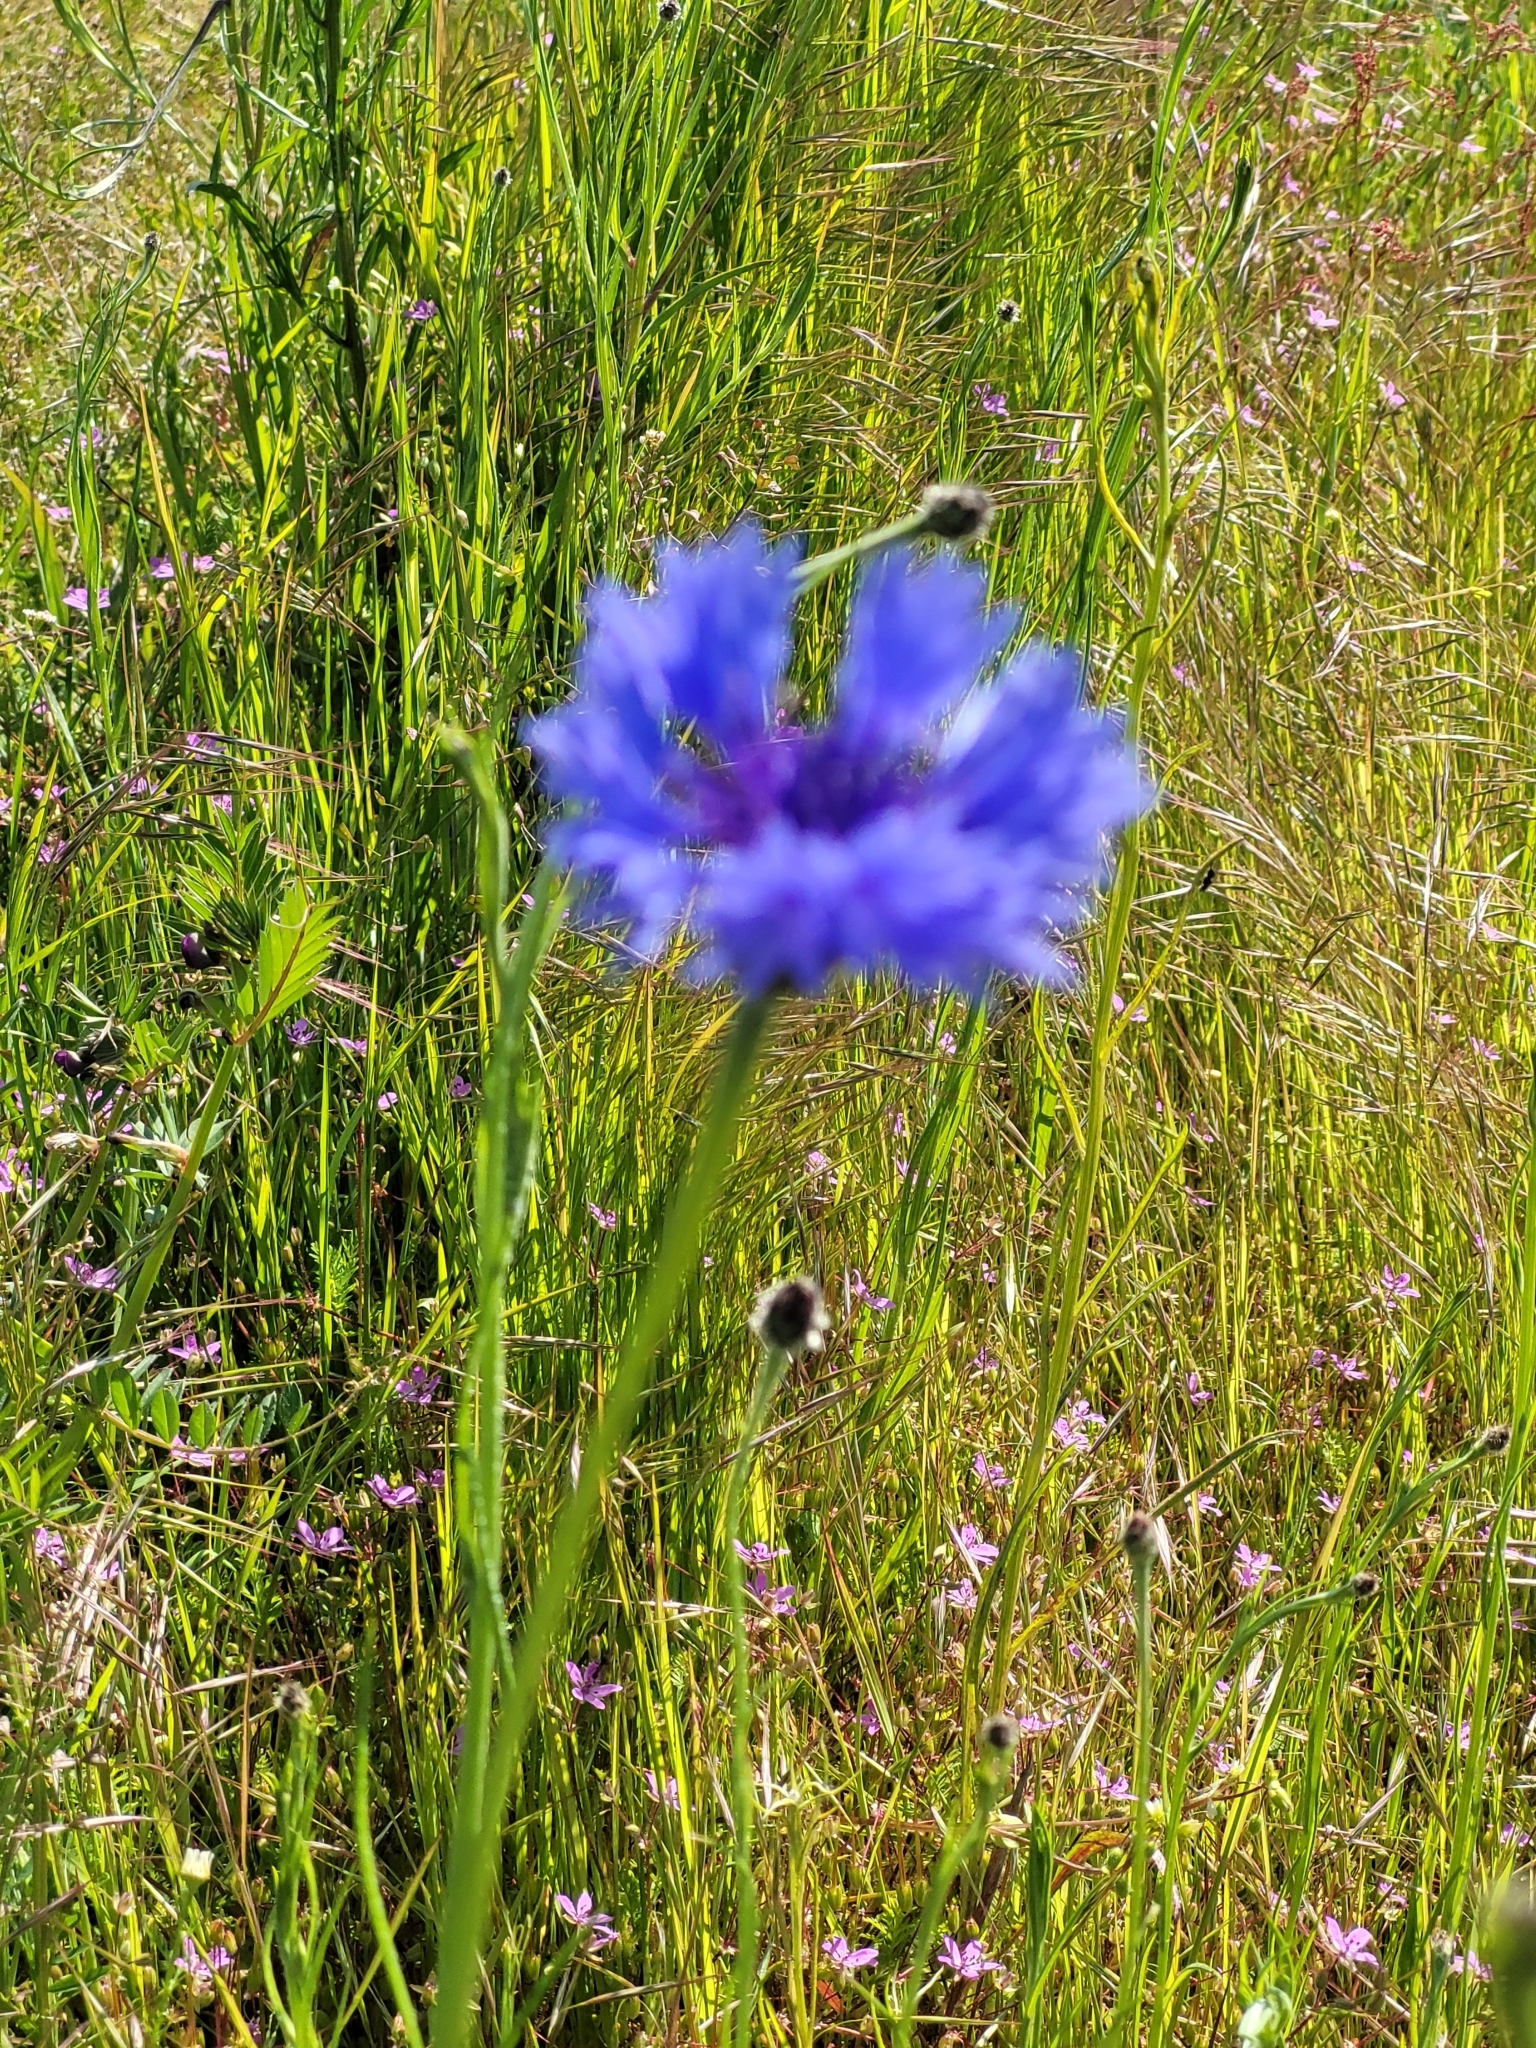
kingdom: Plantae
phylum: Tracheophyta
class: Magnoliopsida
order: Asterales
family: Asteraceae
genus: Centaurea
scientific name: Centaurea cyanus
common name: Cornflower
